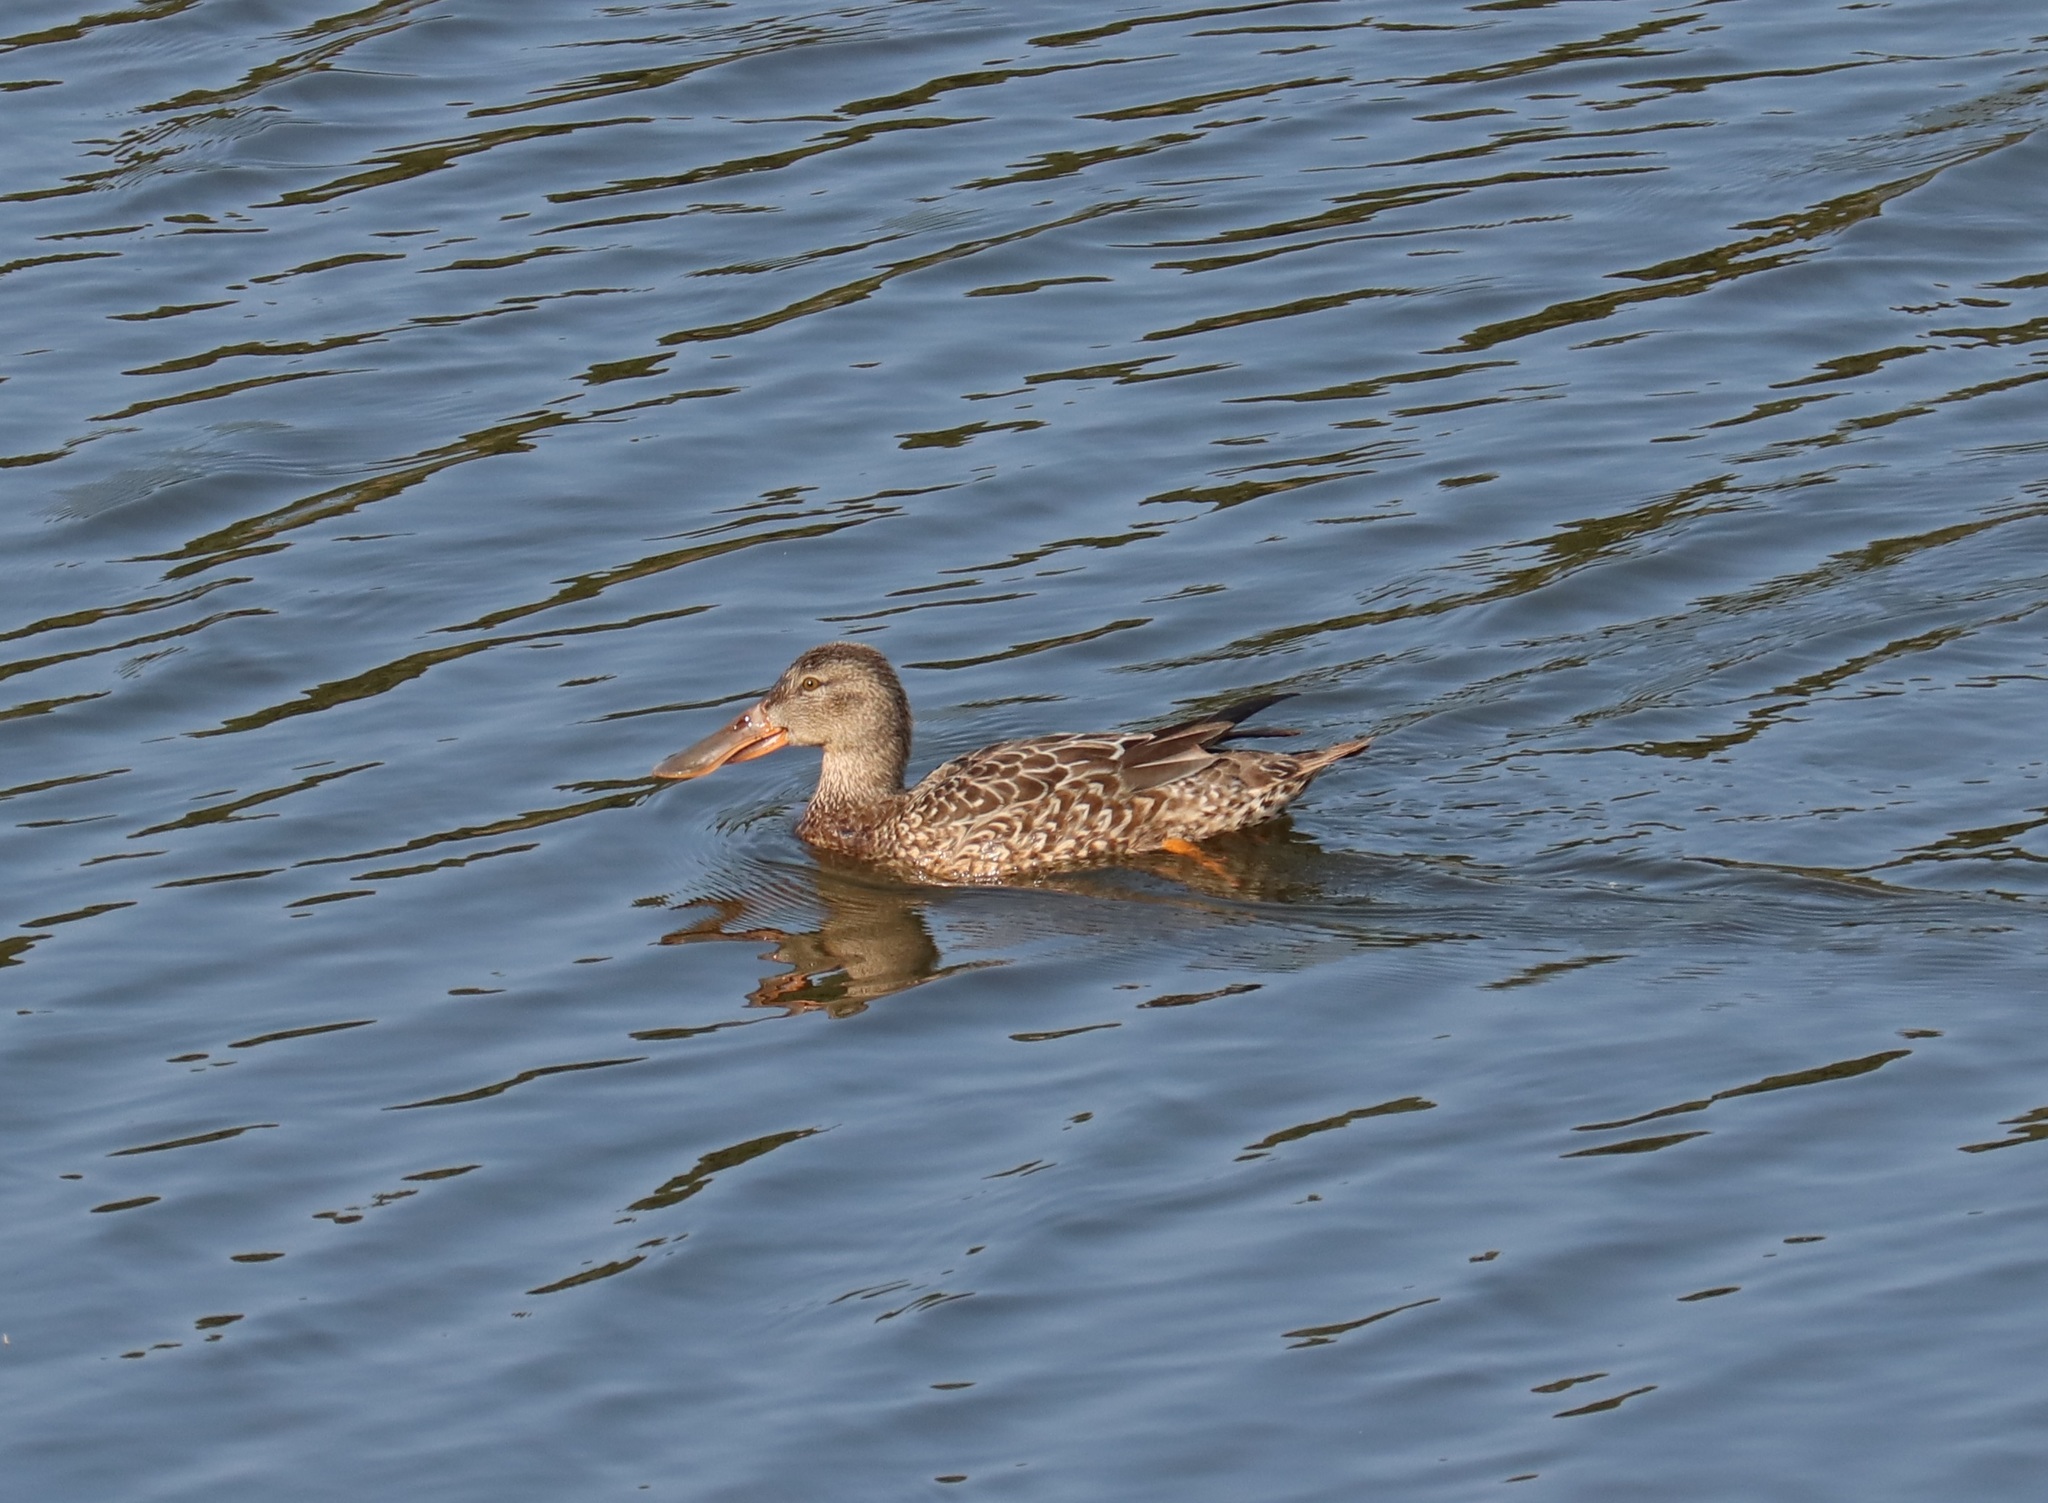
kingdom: Animalia
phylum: Chordata
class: Aves
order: Anseriformes
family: Anatidae
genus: Spatula
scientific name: Spatula clypeata
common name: Northern shoveler
